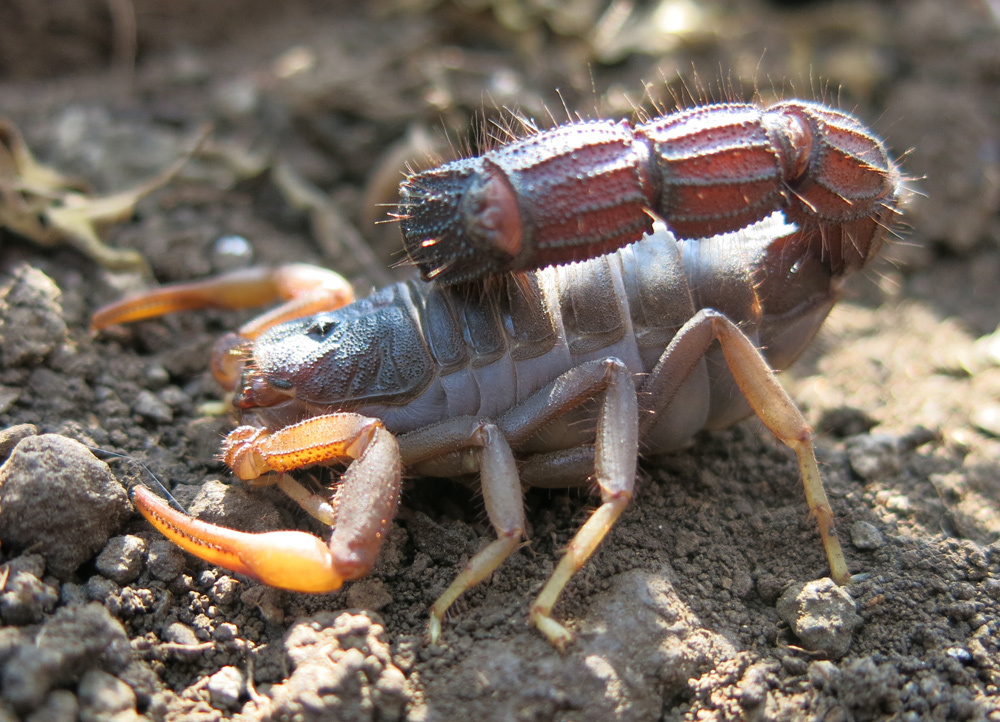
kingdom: Animalia
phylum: Arthropoda
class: Arachnida
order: Scorpiones
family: Buthidae
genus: Parabuthus
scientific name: Parabuthus transvaalicus
